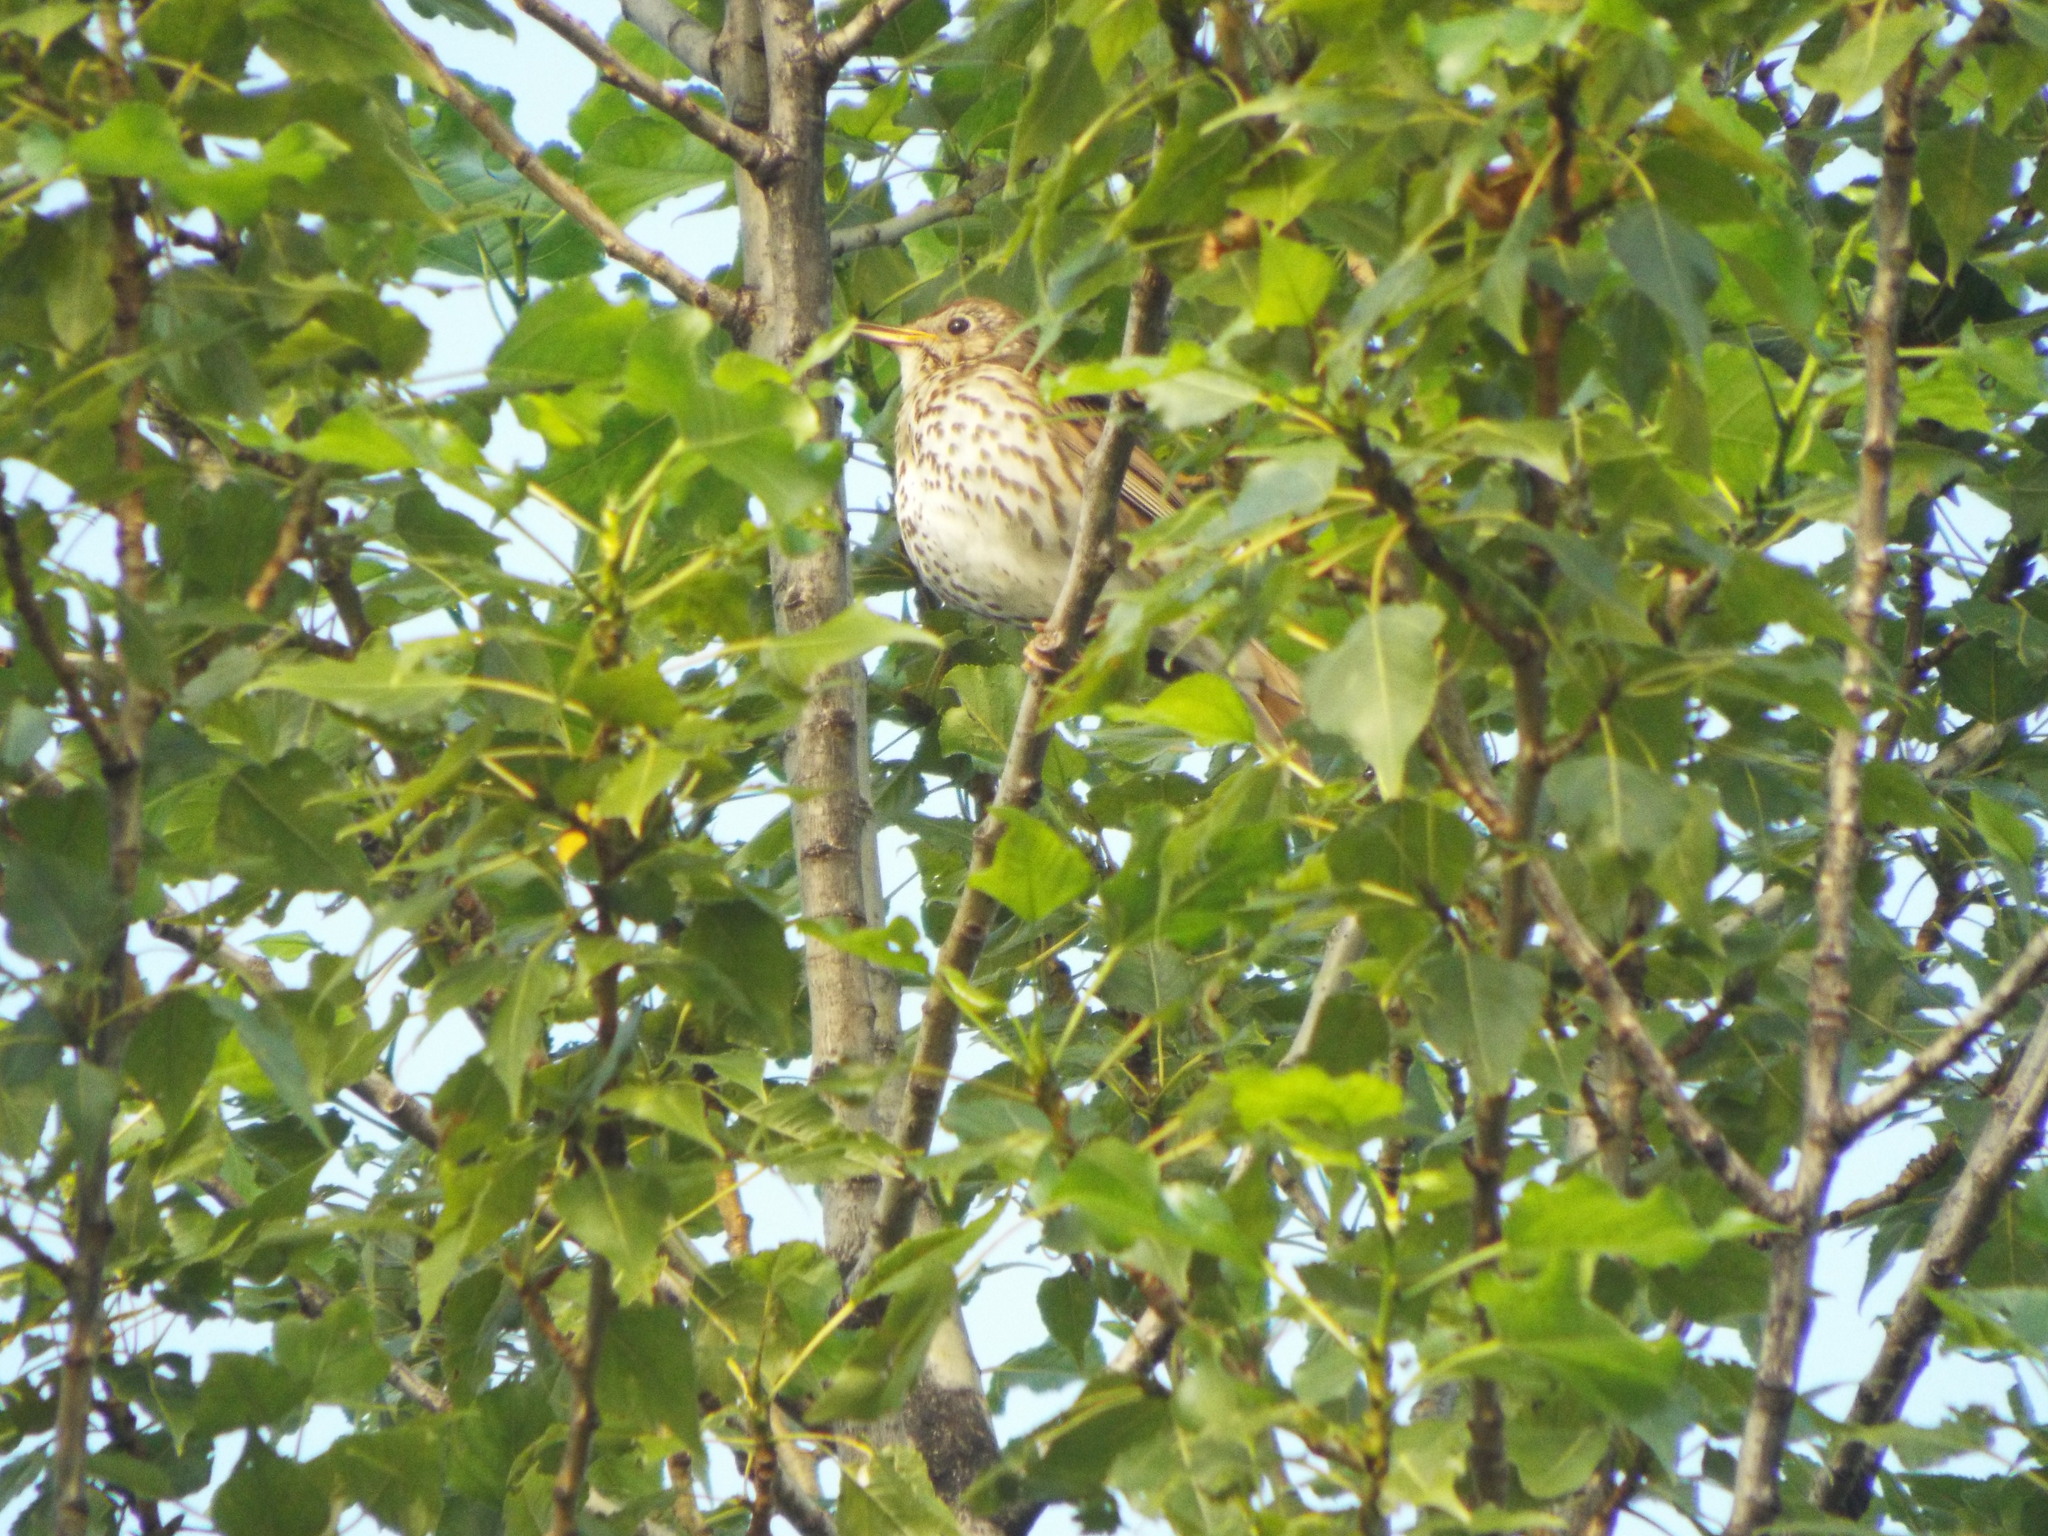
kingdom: Animalia
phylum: Chordata
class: Aves
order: Passeriformes
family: Turdidae
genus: Turdus
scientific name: Turdus philomelos
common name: Song thrush
